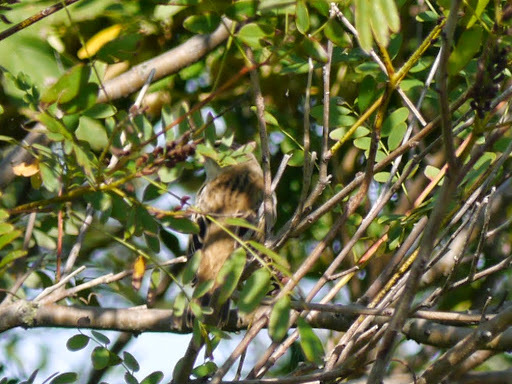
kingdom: Animalia
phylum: Chordata
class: Aves
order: Passeriformes
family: Acrocephalidae
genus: Acrocephalus
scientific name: Acrocephalus schoenobaenus
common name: Sedge warbler
